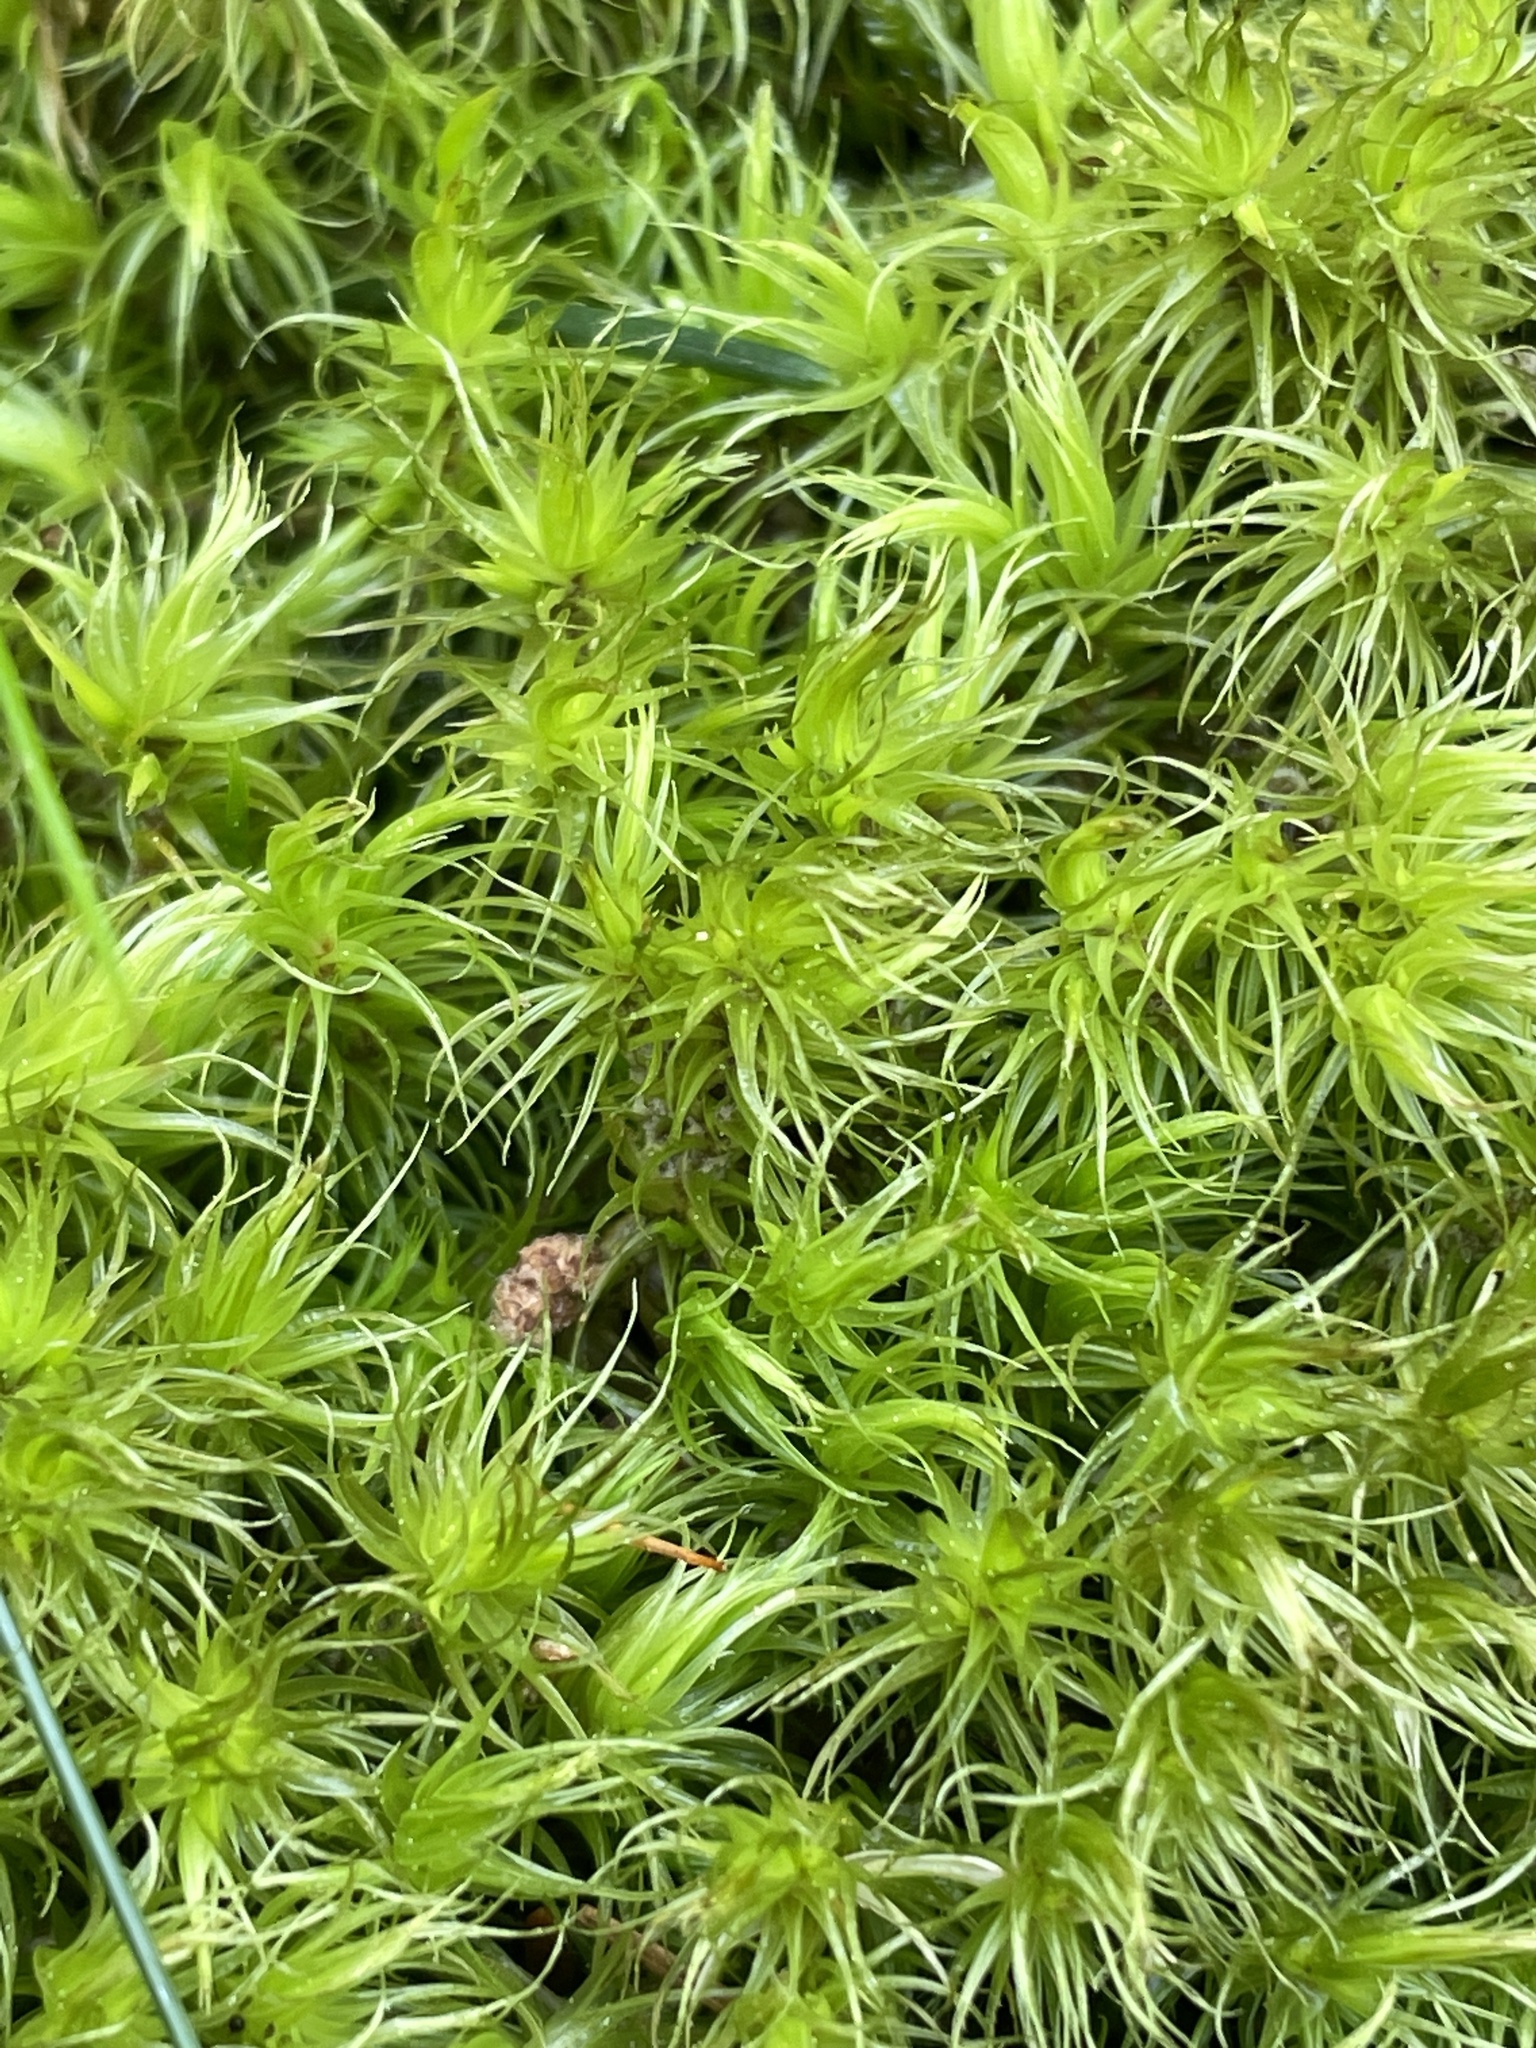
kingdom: Plantae
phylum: Bryophyta
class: Bryopsida
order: Dicranales
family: Dicranaceae
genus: Dicranum
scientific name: Dicranum scoparium
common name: Broom fork-moss
